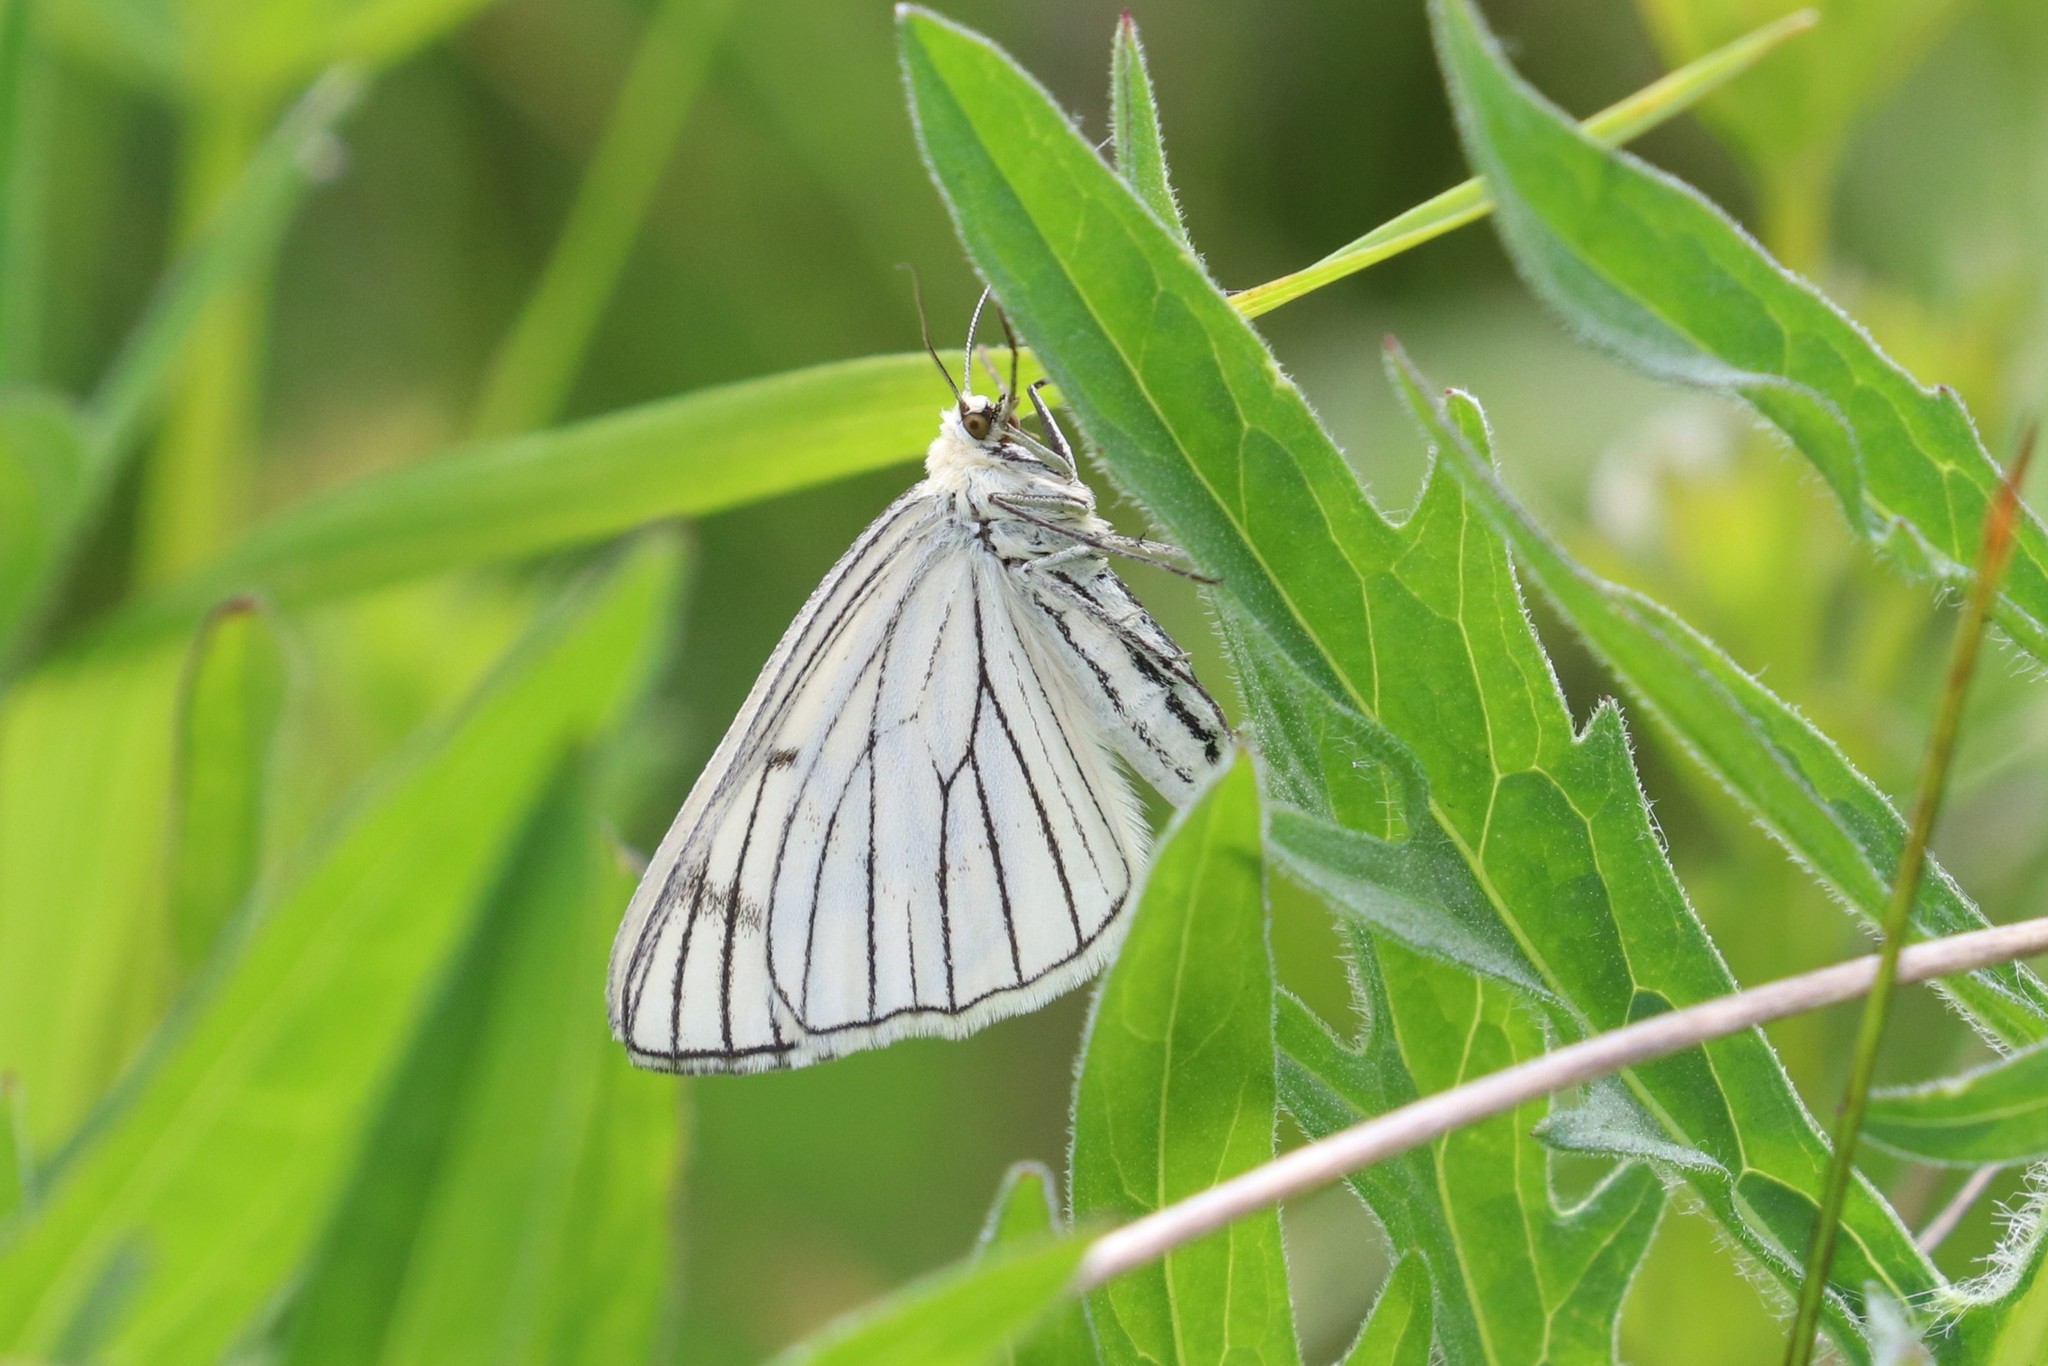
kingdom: Animalia
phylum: Arthropoda
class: Insecta
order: Lepidoptera
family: Geometridae
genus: Siona
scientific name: Siona lineata
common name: Black-veined moth
